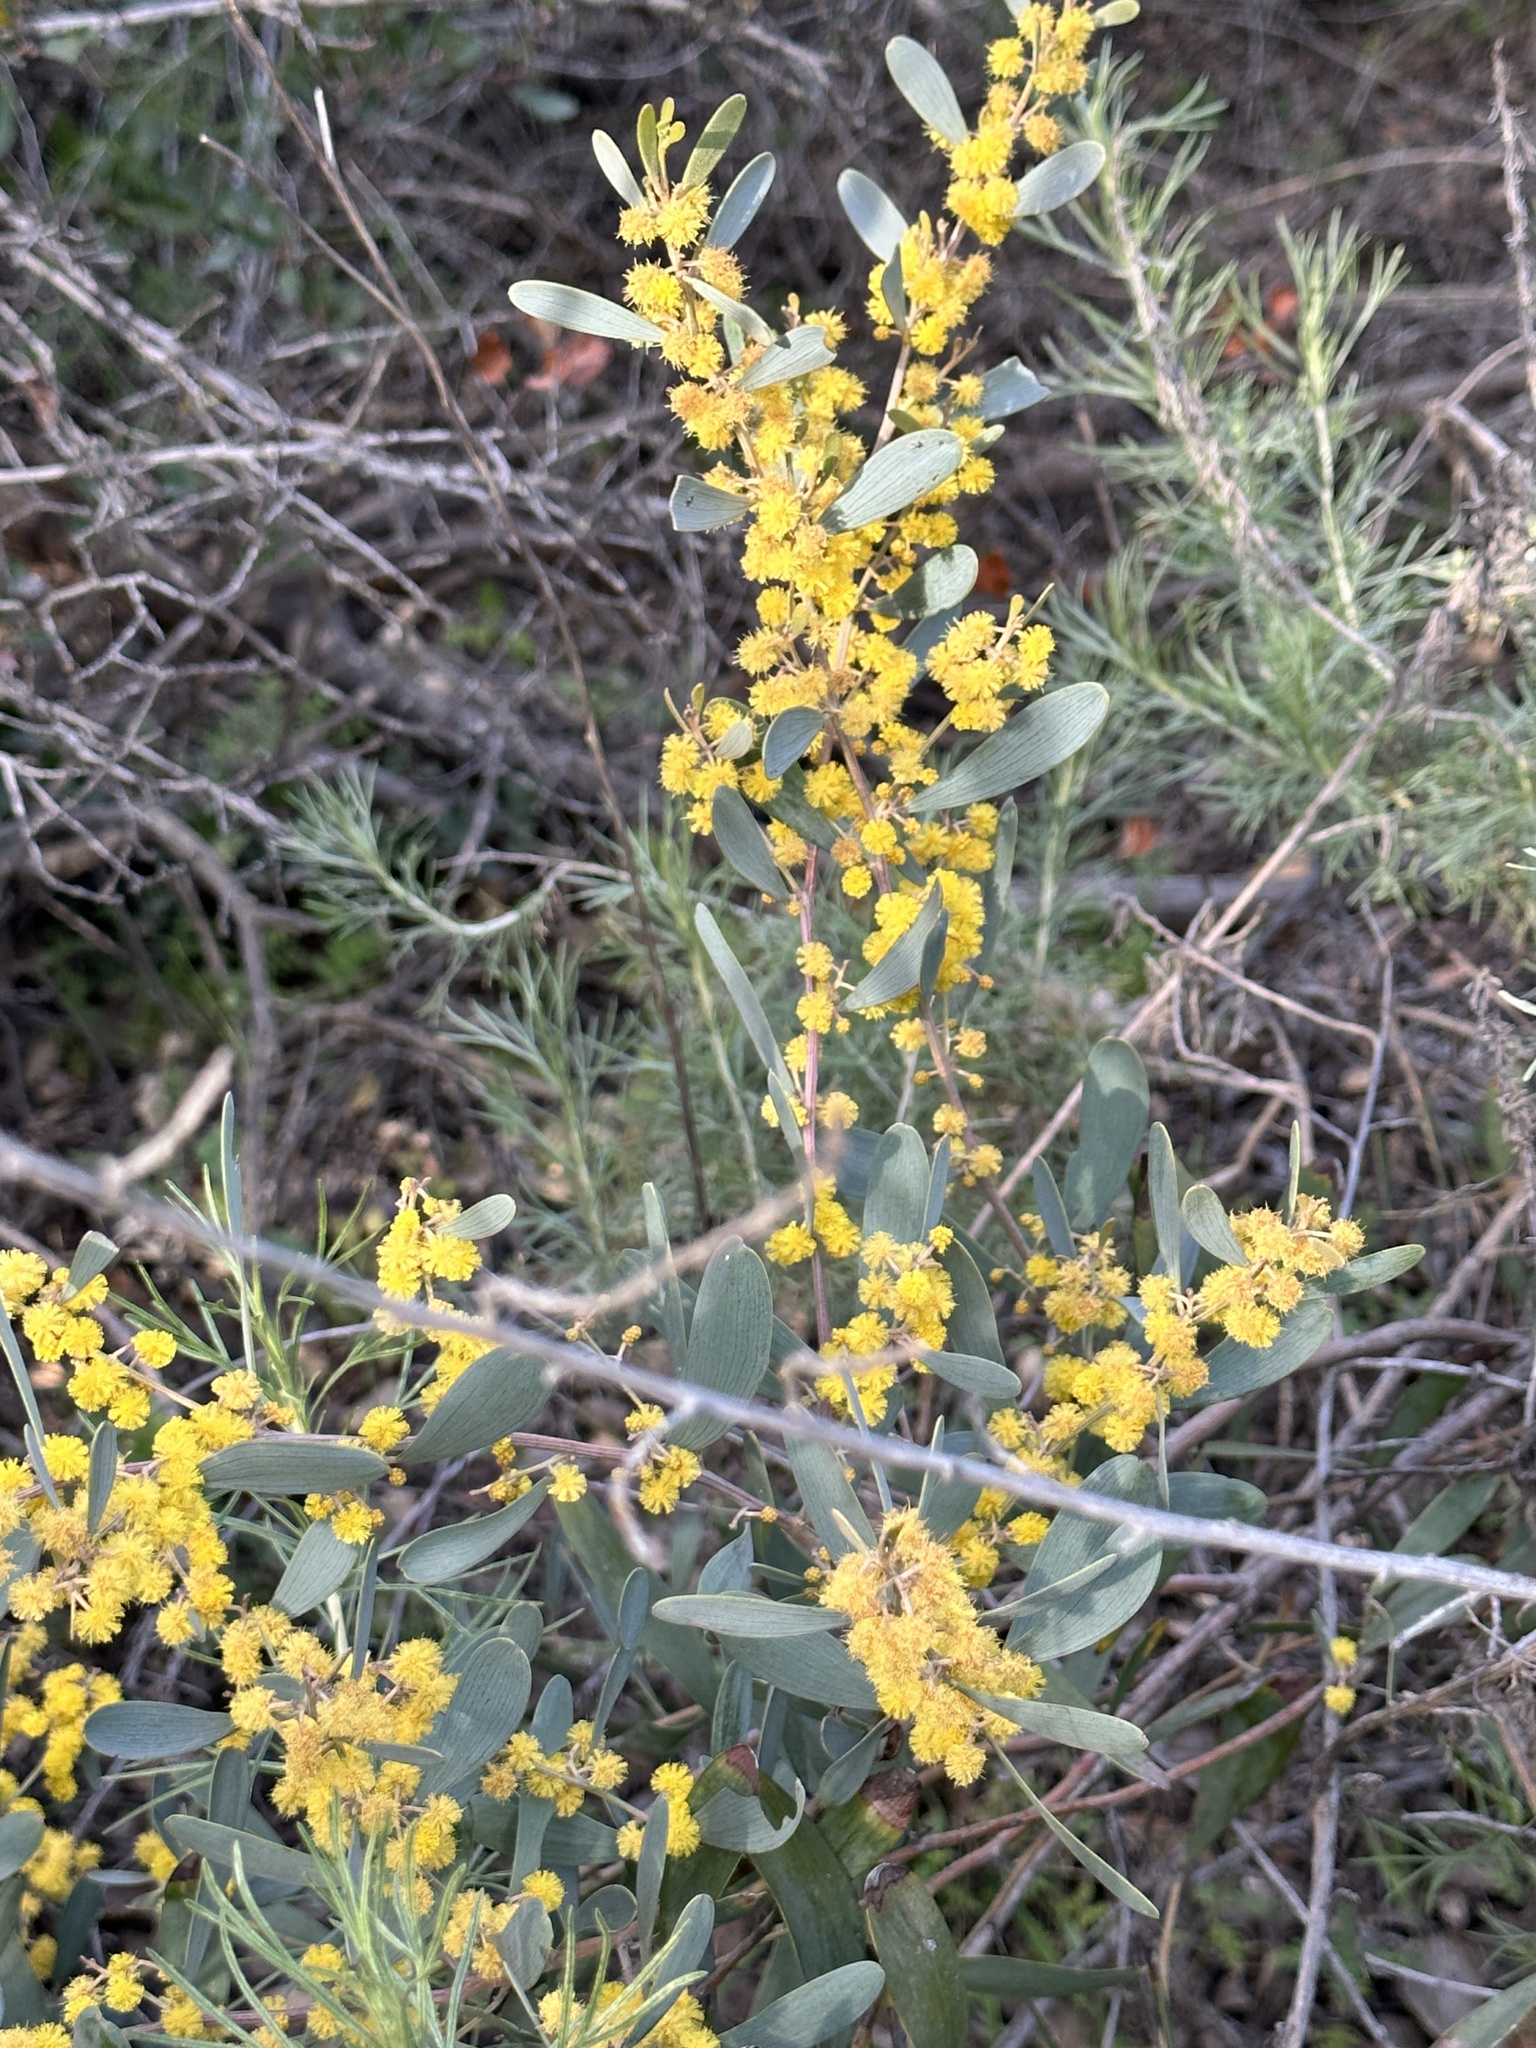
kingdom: Plantae
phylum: Tracheophyta
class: Magnoliopsida
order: Fabales
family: Fabaceae
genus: Acacia
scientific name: Acacia redolens
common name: Bank catclaw
